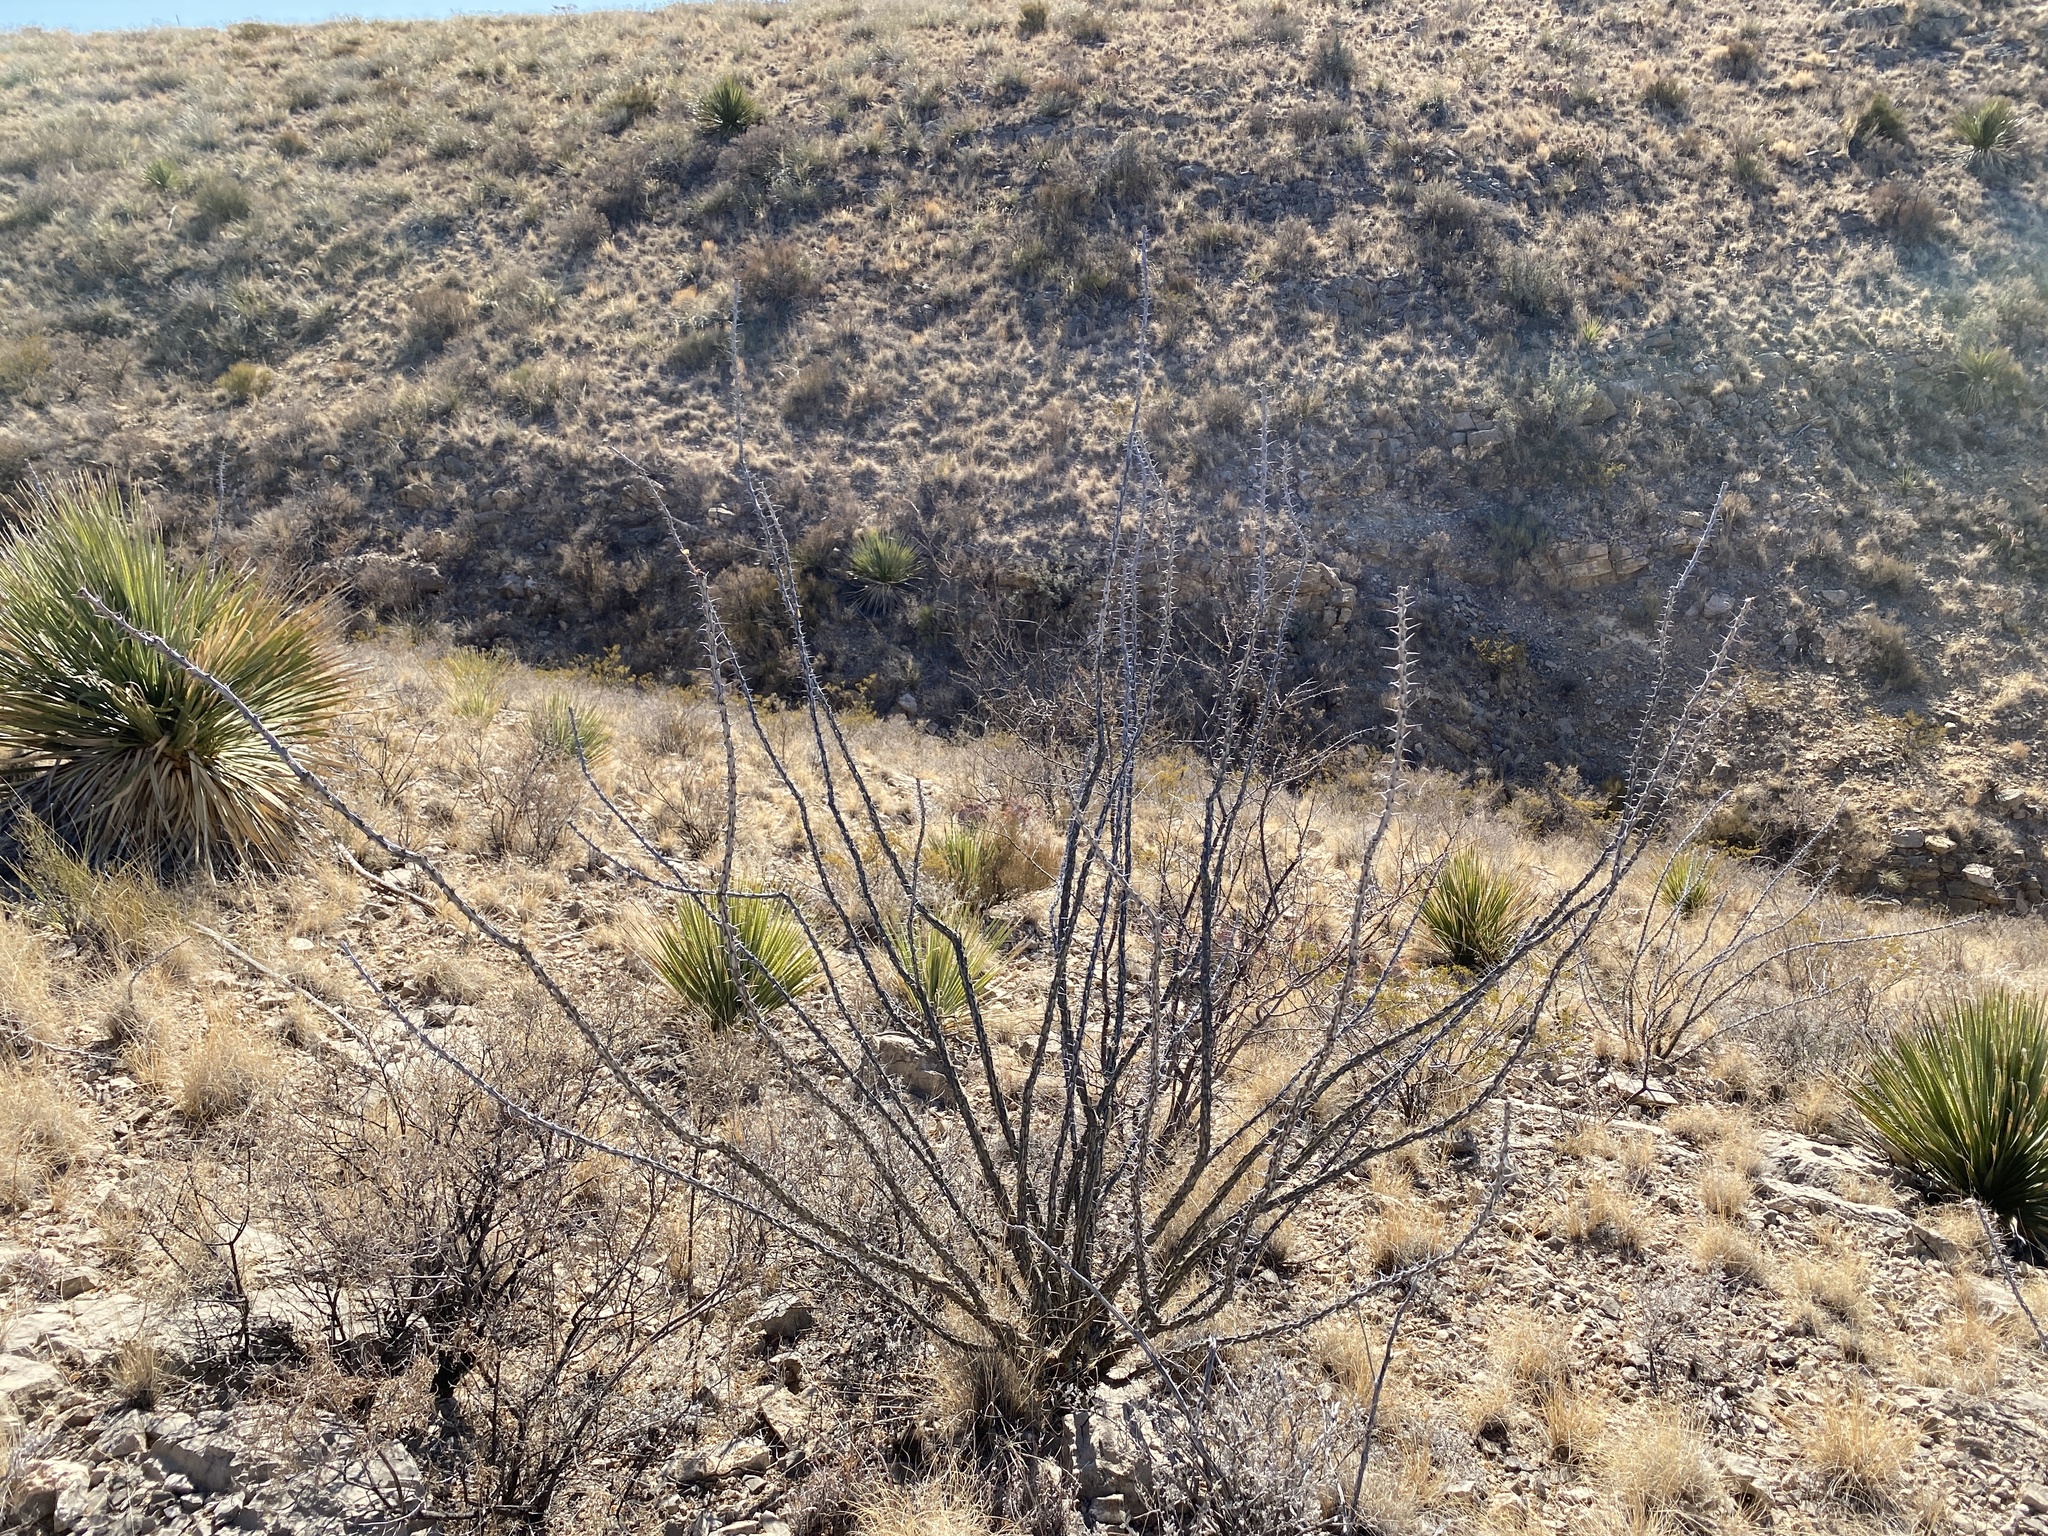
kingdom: Plantae
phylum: Tracheophyta
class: Magnoliopsida
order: Ericales
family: Fouquieriaceae
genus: Fouquieria
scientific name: Fouquieria splendens
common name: Vine-cactus
